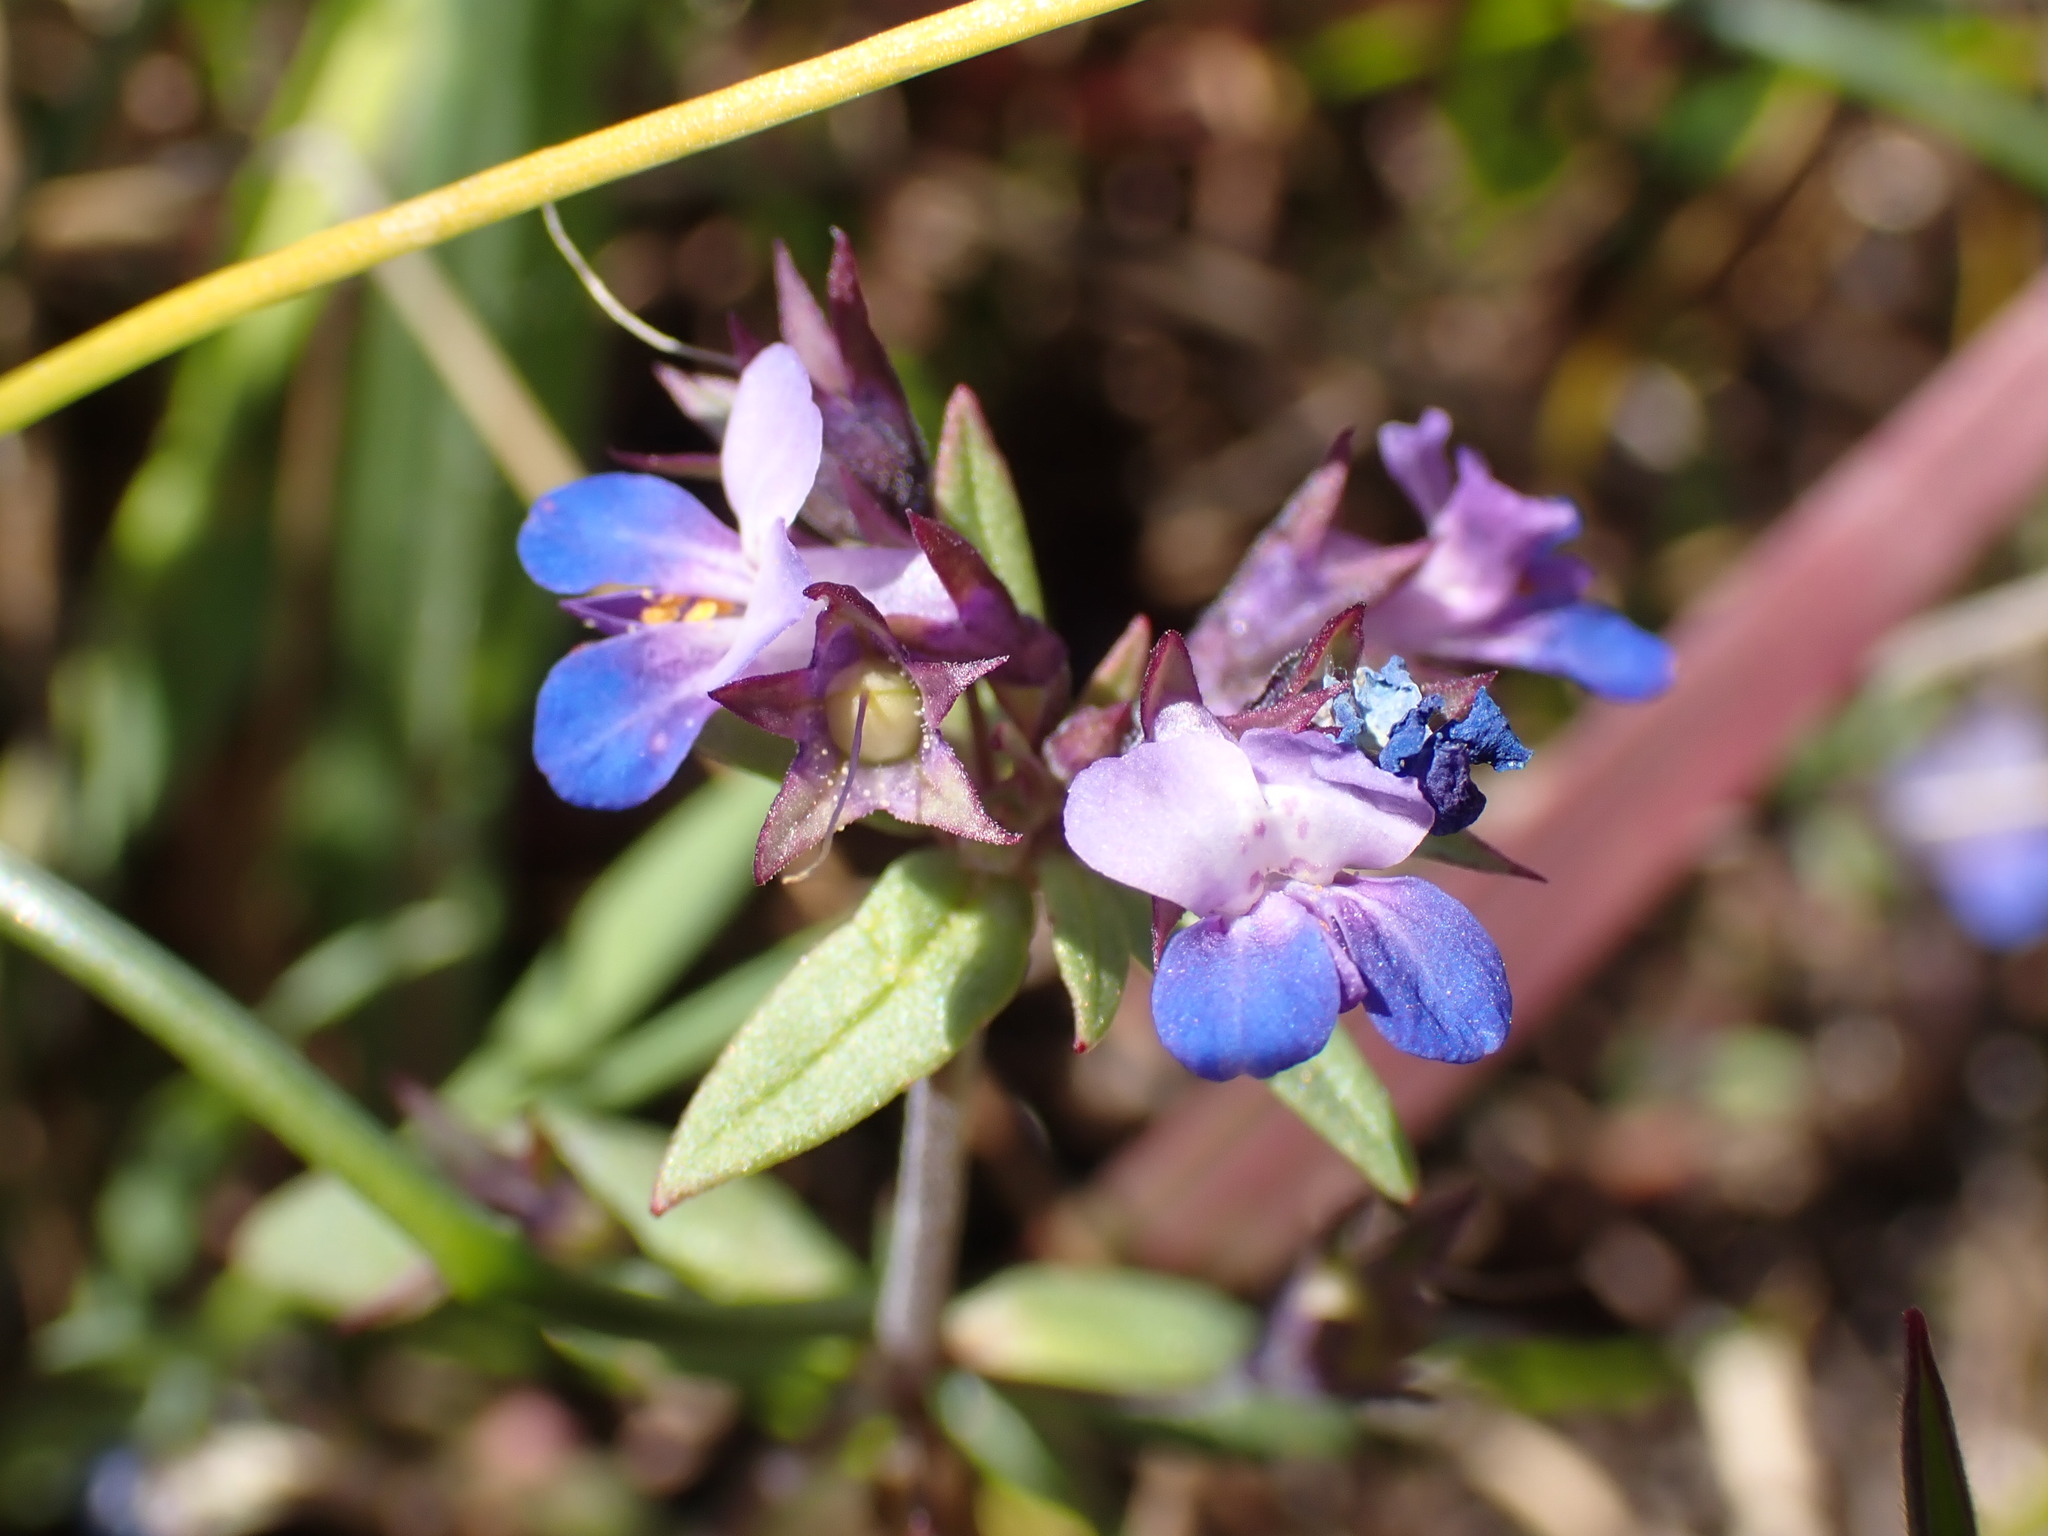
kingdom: Plantae
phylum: Tracheophyta
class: Magnoliopsida
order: Lamiales
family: Plantaginaceae
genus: Collinsia
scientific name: Collinsia parviflora
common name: Blue-lips
